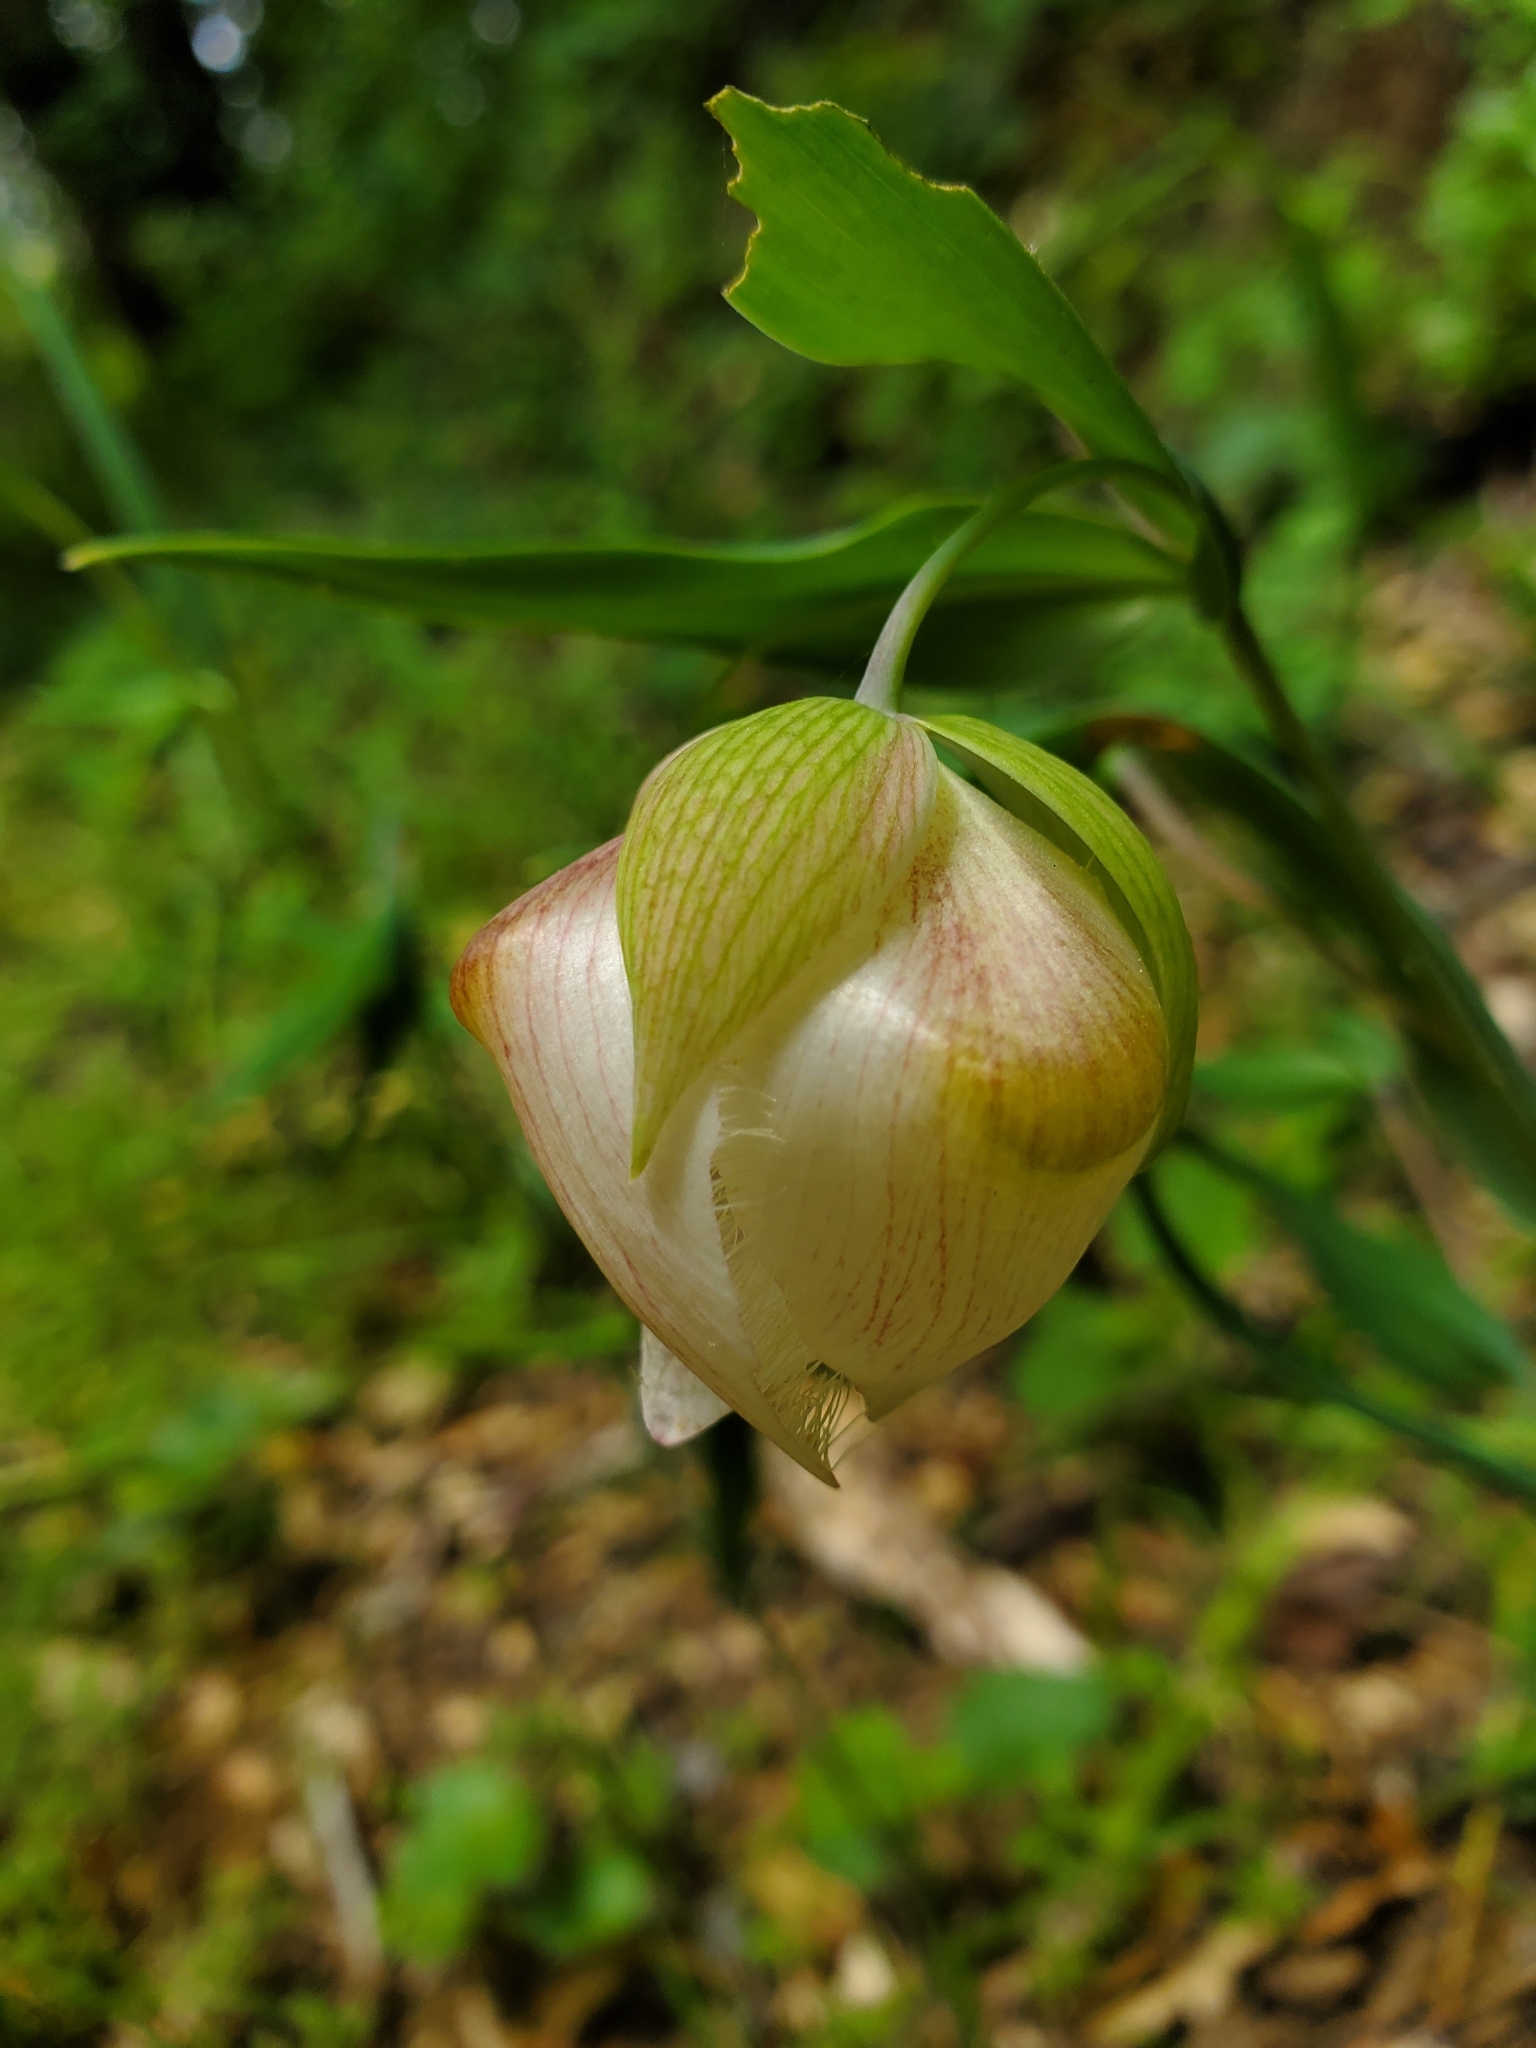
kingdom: Plantae
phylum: Tracheophyta
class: Liliopsida
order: Liliales
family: Liliaceae
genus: Calochortus
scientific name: Calochortus albus
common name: Fairy-lantern
